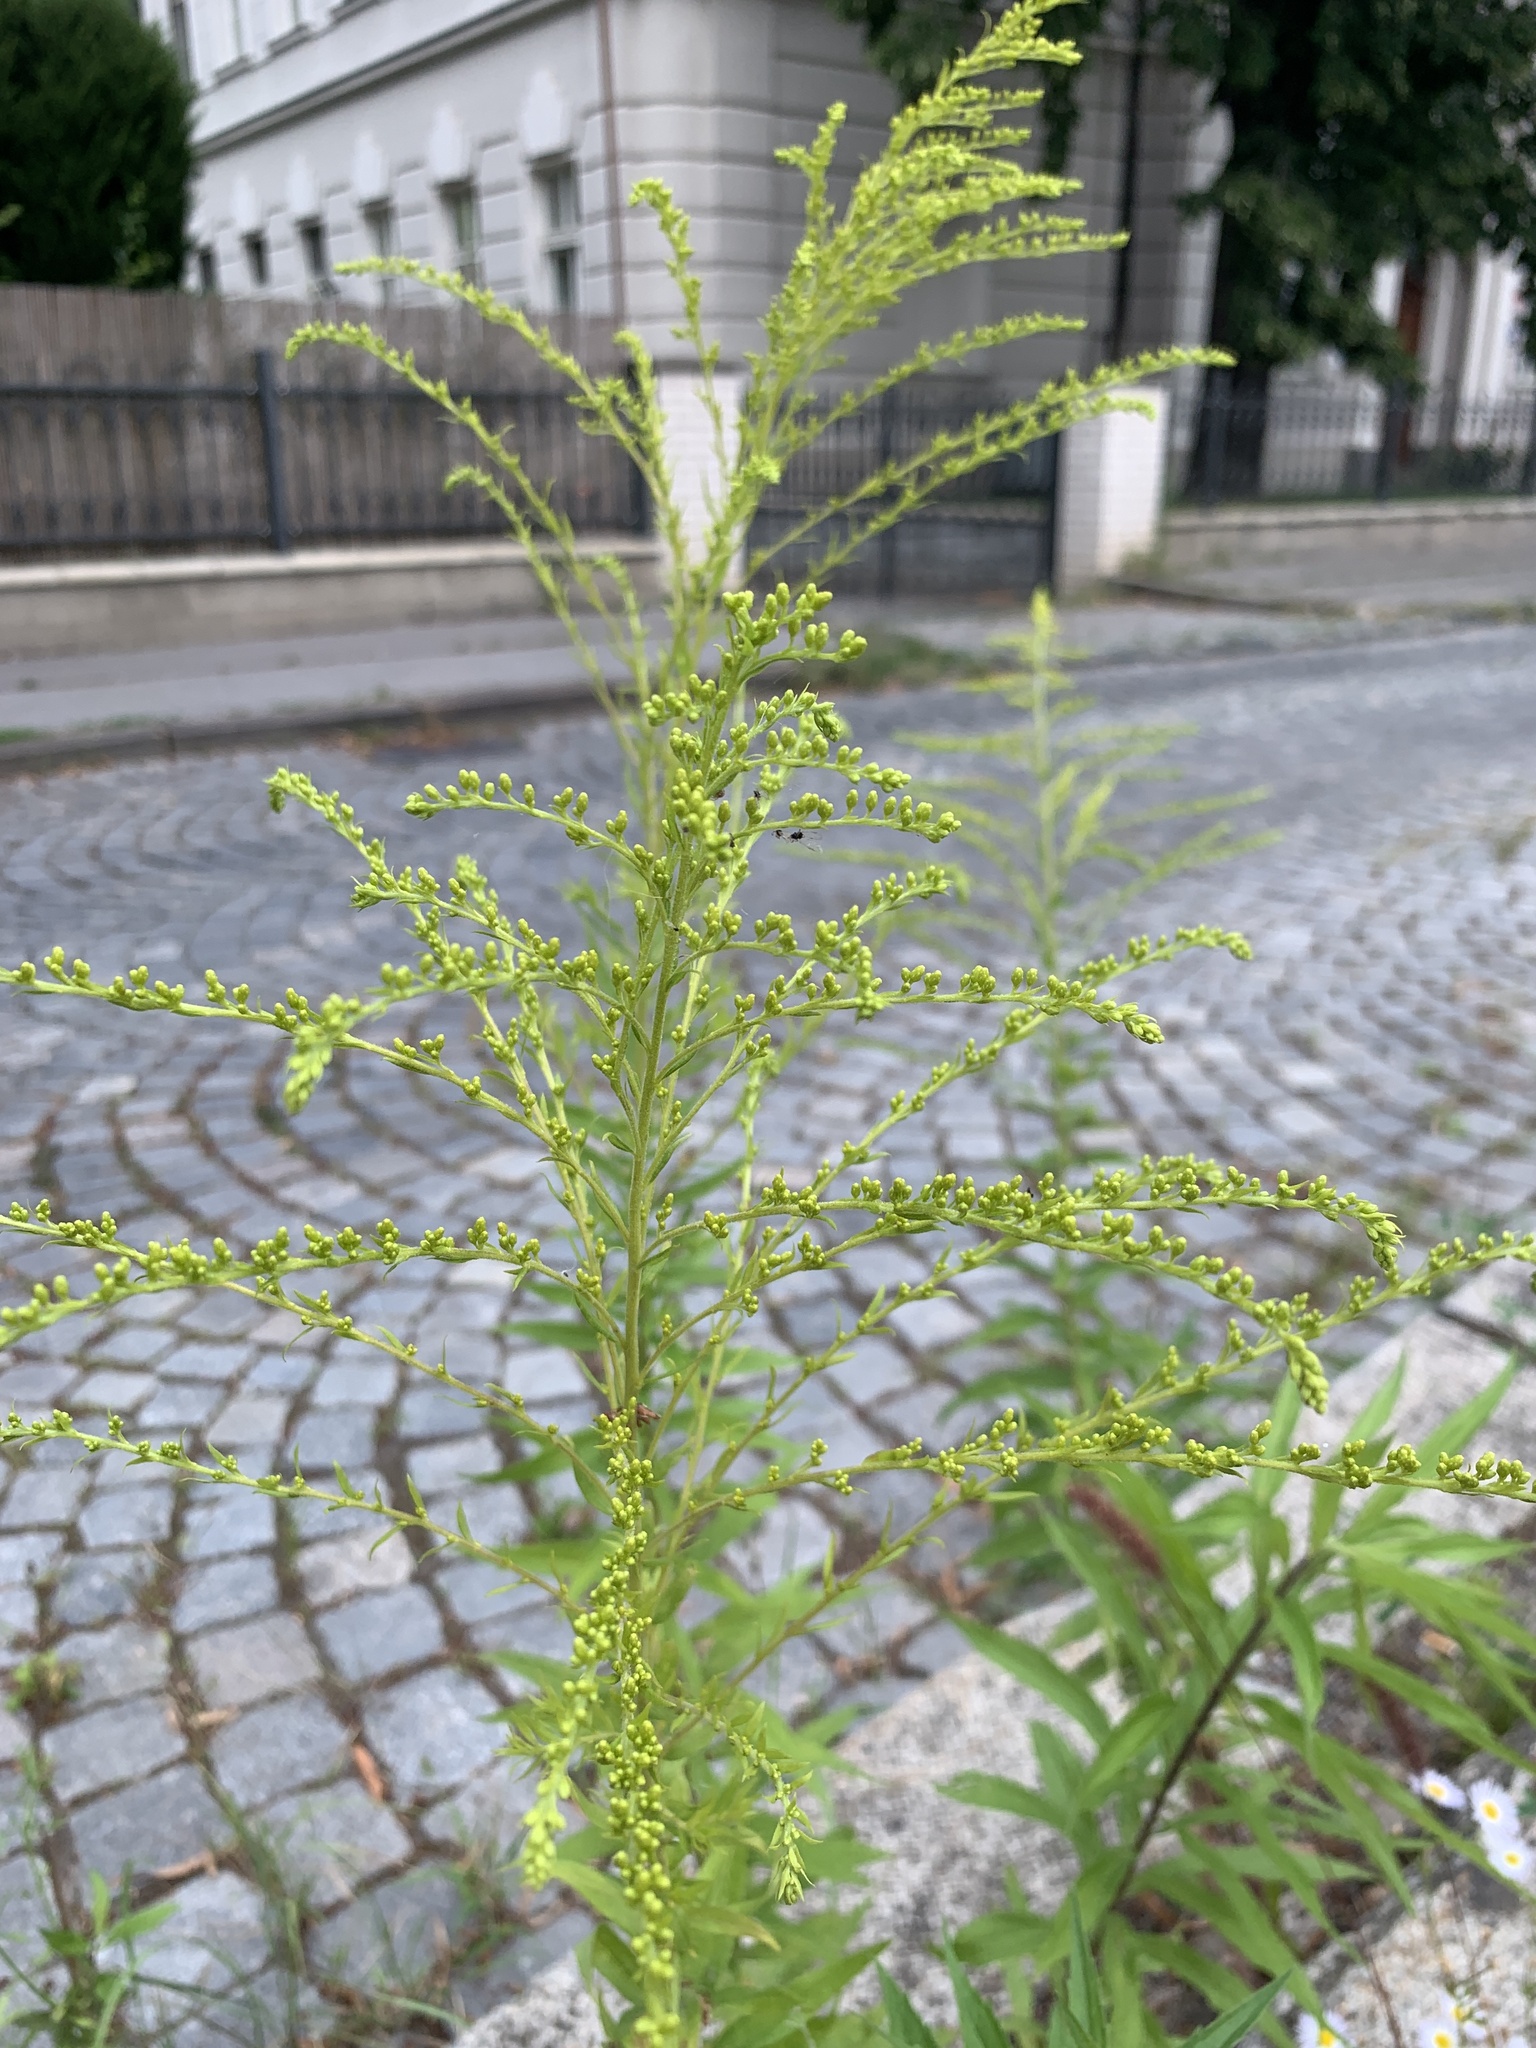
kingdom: Plantae
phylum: Tracheophyta
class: Magnoliopsida
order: Asterales
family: Asteraceae
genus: Solidago
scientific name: Solidago canadensis
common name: Canada goldenrod
